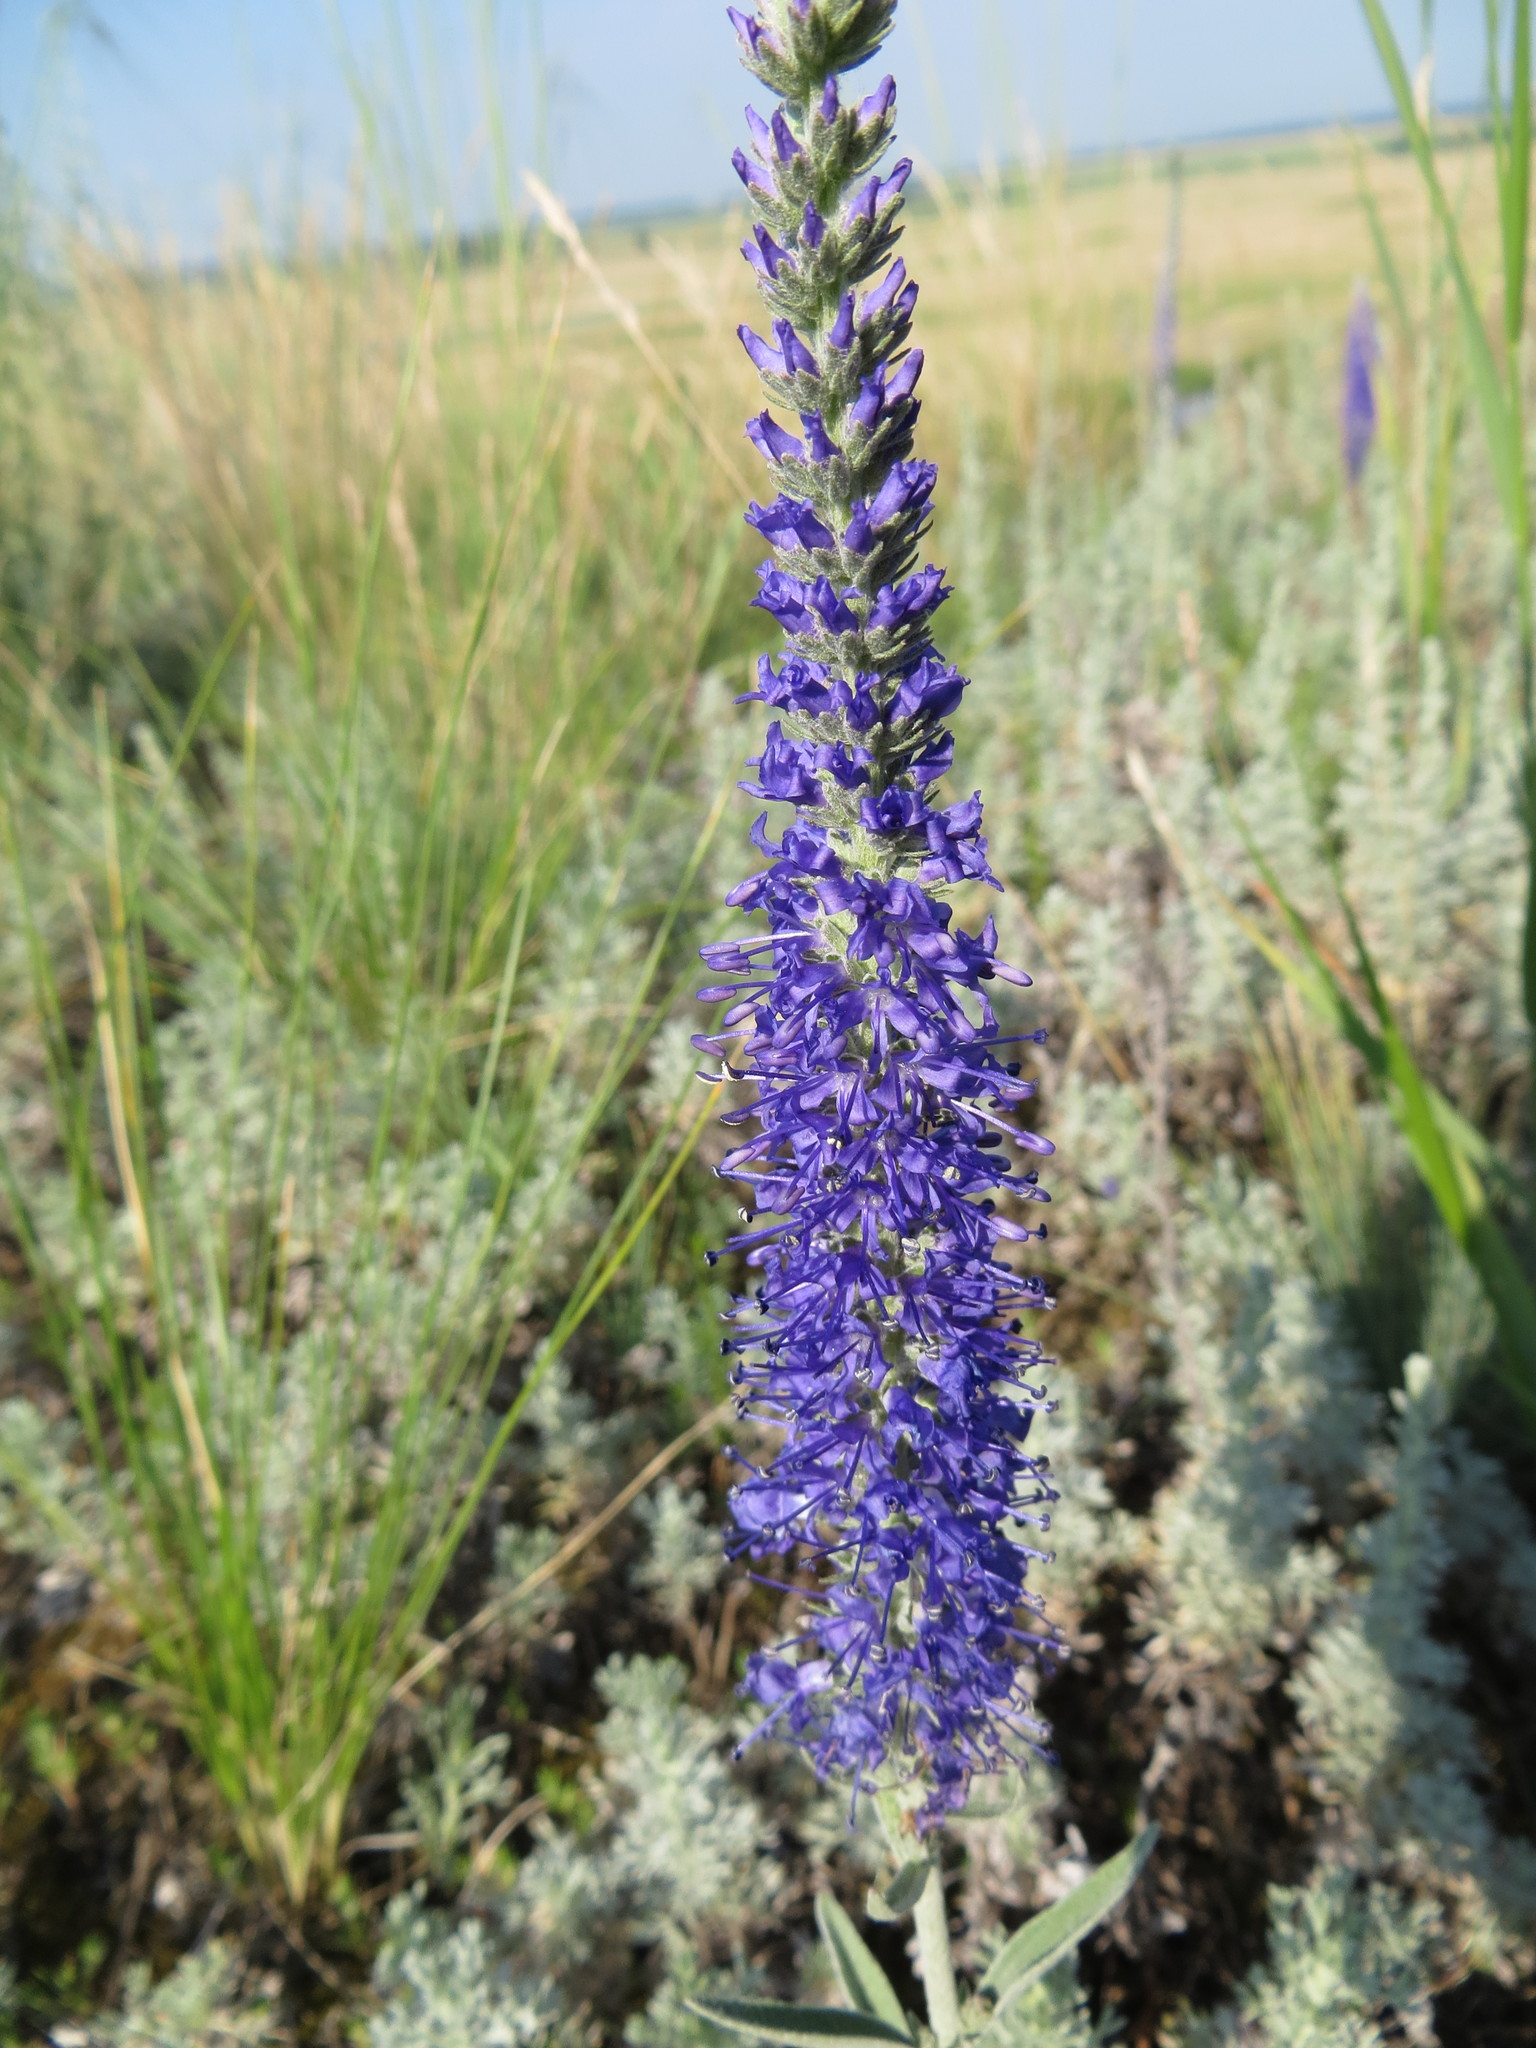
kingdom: Plantae
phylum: Tracheophyta
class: Magnoliopsida
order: Lamiales
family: Plantaginaceae
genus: Veronica
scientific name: Veronica incana
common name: Silver speedwell
